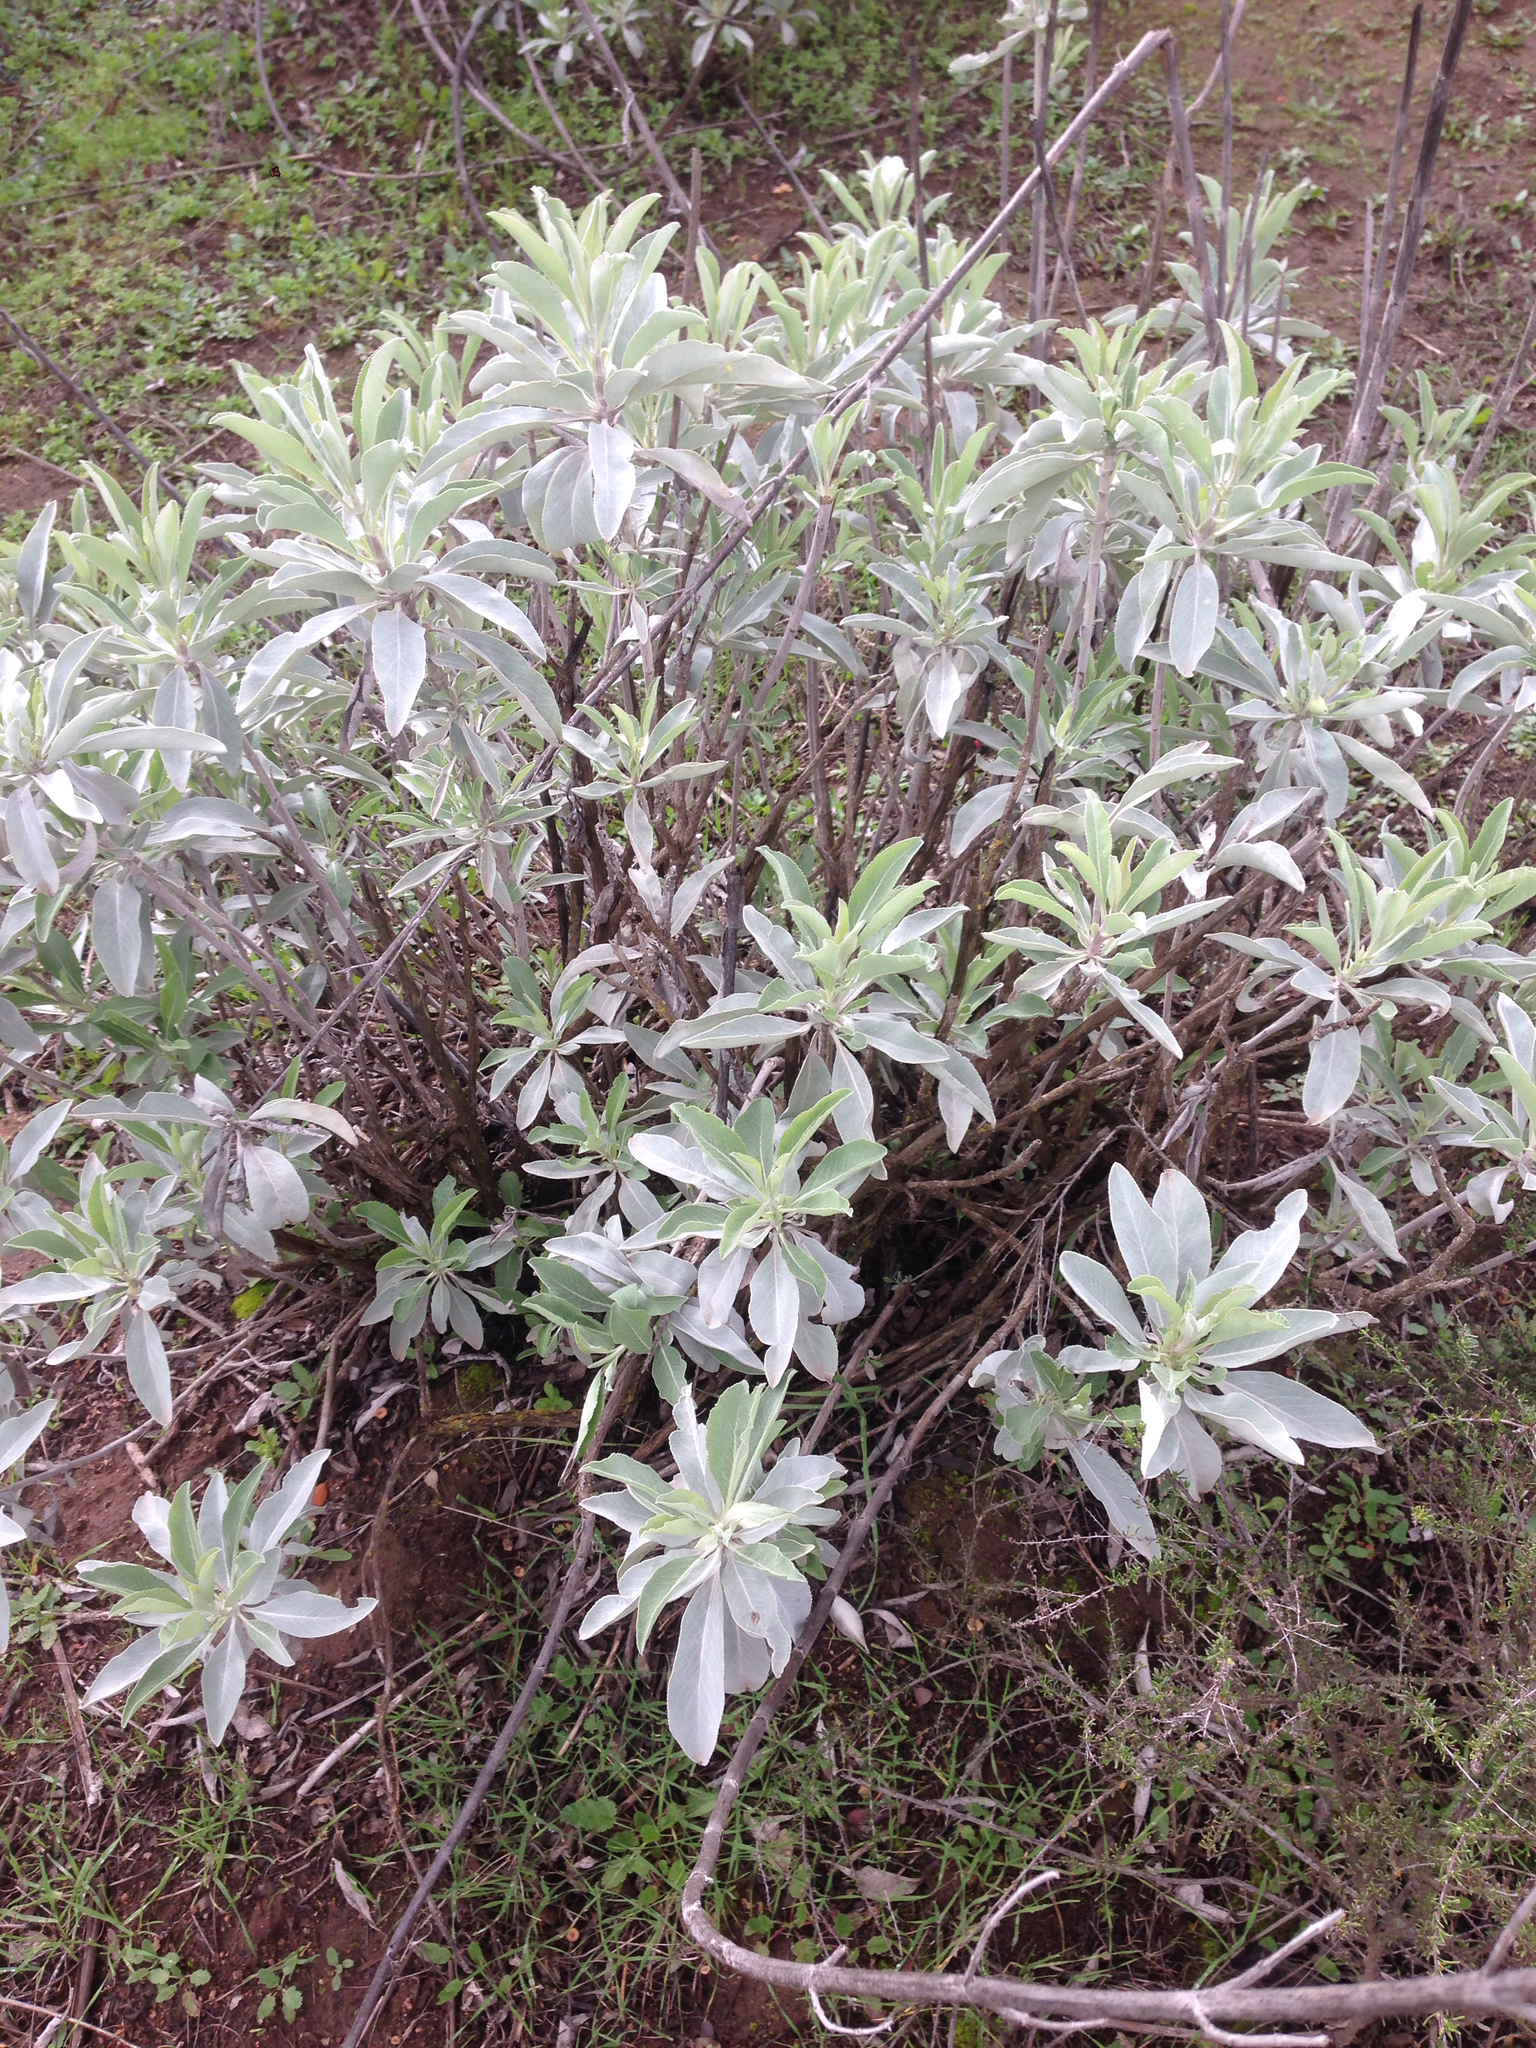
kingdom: Plantae
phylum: Tracheophyta
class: Magnoliopsida
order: Lamiales
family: Lamiaceae
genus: Salvia
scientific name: Salvia apiana
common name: White sage
